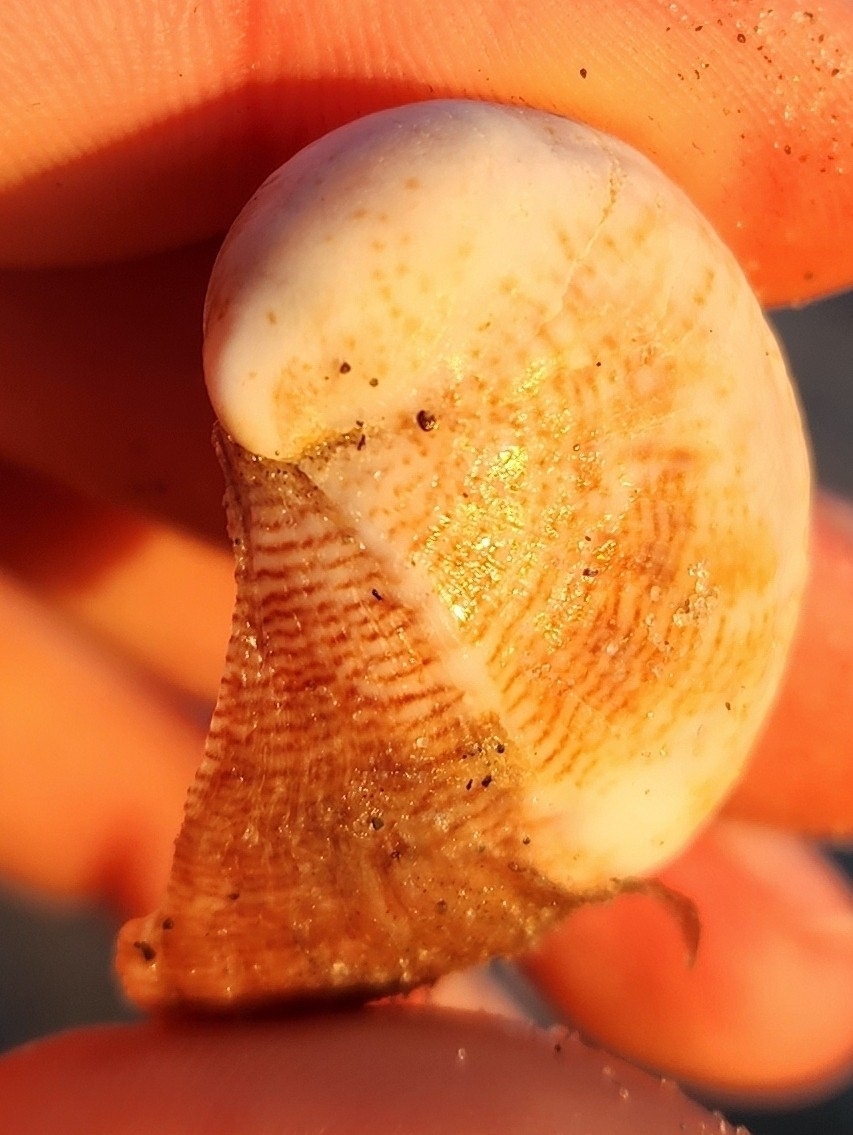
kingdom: Animalia
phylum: Mollusca
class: Gastropoda
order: Littorinimorpha
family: Calyptraeidae
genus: Crepidula
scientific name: Crepidula fornicata
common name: Slipper limpet
